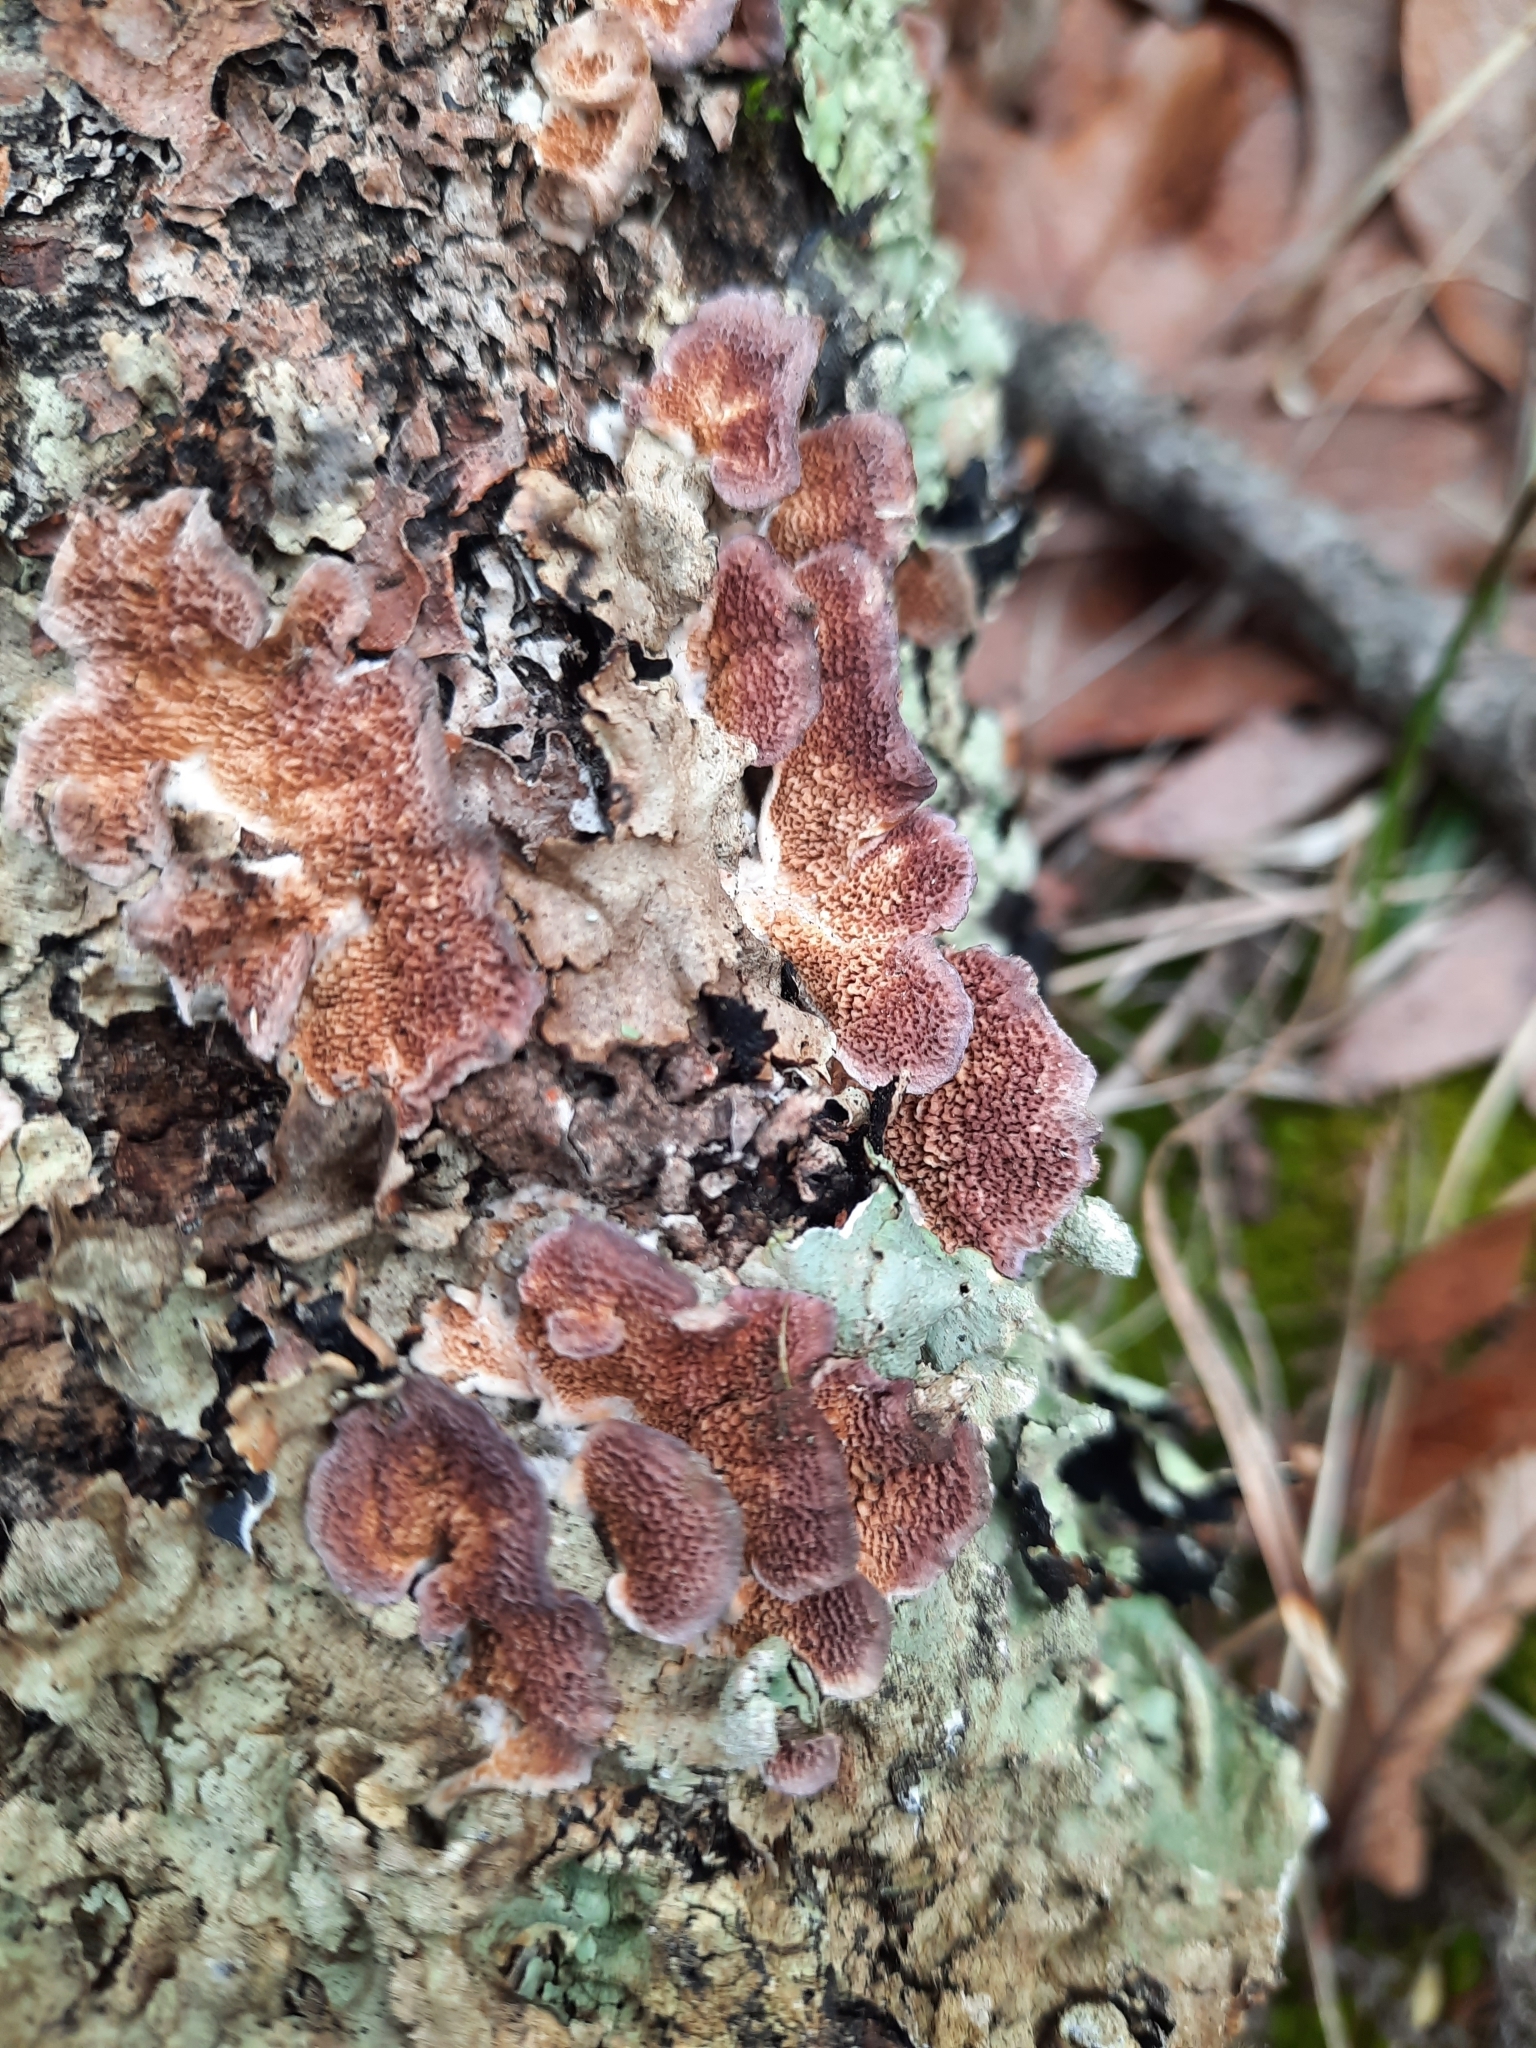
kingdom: Fungi
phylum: Basidiomycota
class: Agaricomycetes
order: Hymenochaetales
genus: Trichaptum
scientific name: Trichaptum biforme
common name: Violet-toothed polypore
